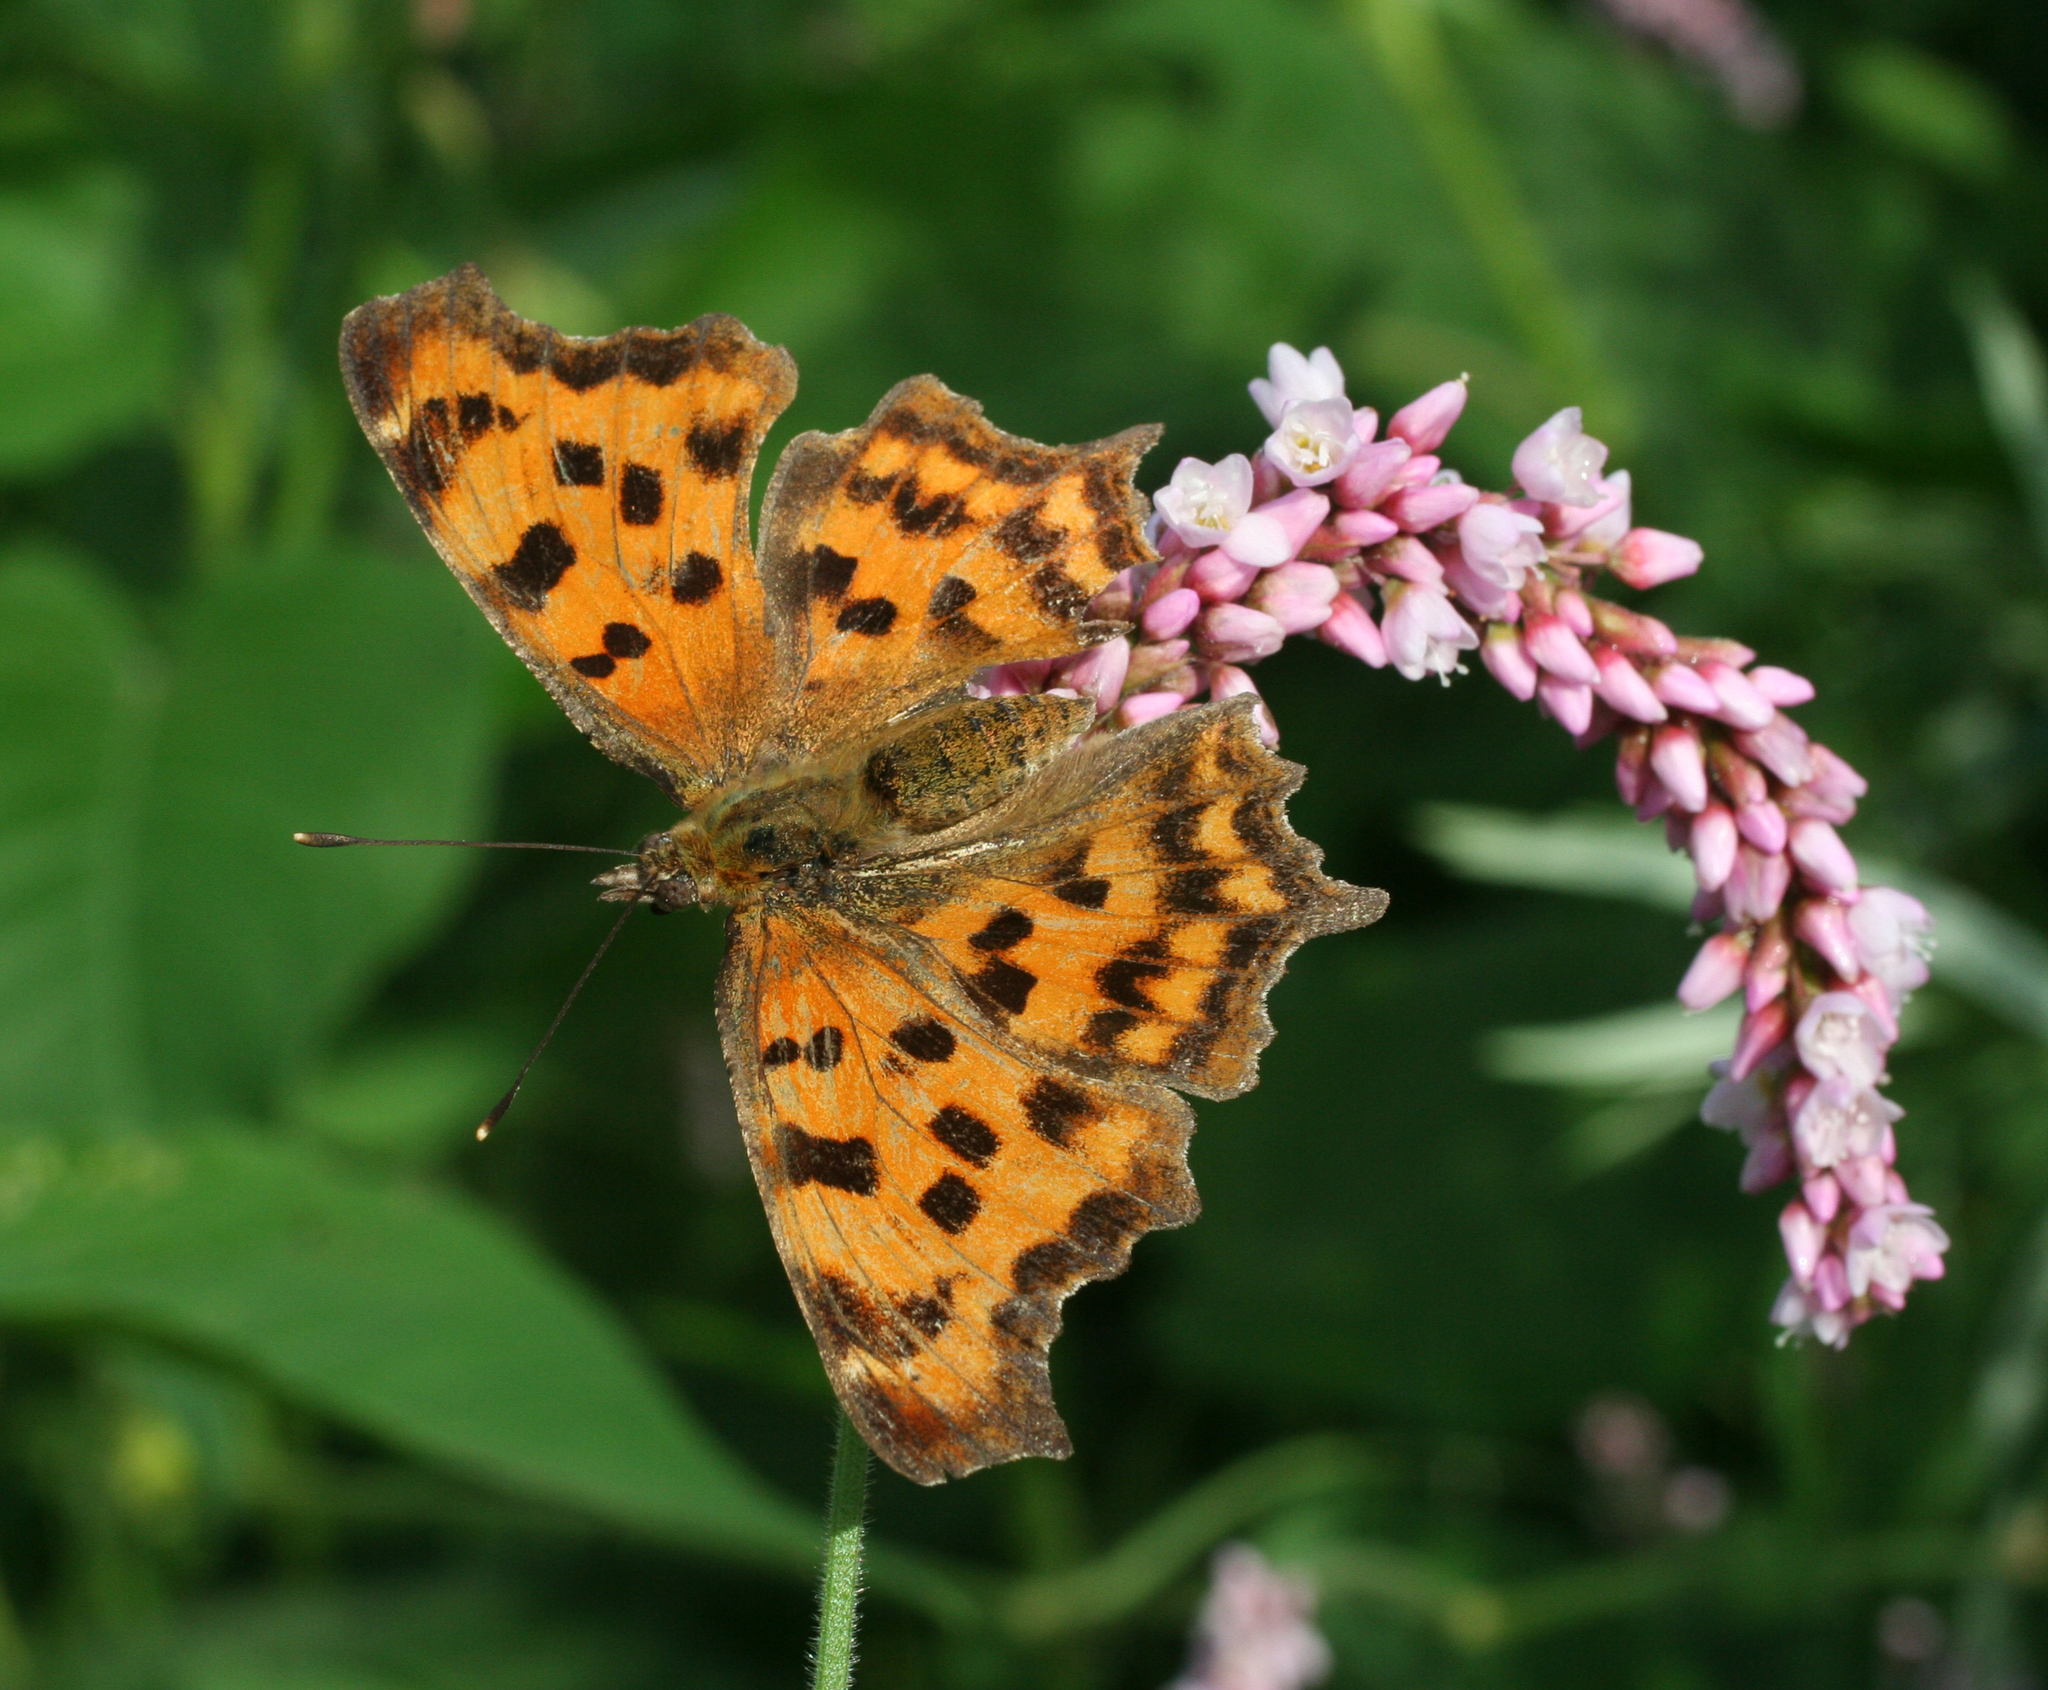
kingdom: Animalia
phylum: Arthropoda
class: Insecta
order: Lepidoptera
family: Nymphalidae
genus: Polygonia
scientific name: Polygonia c-album
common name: Comma
